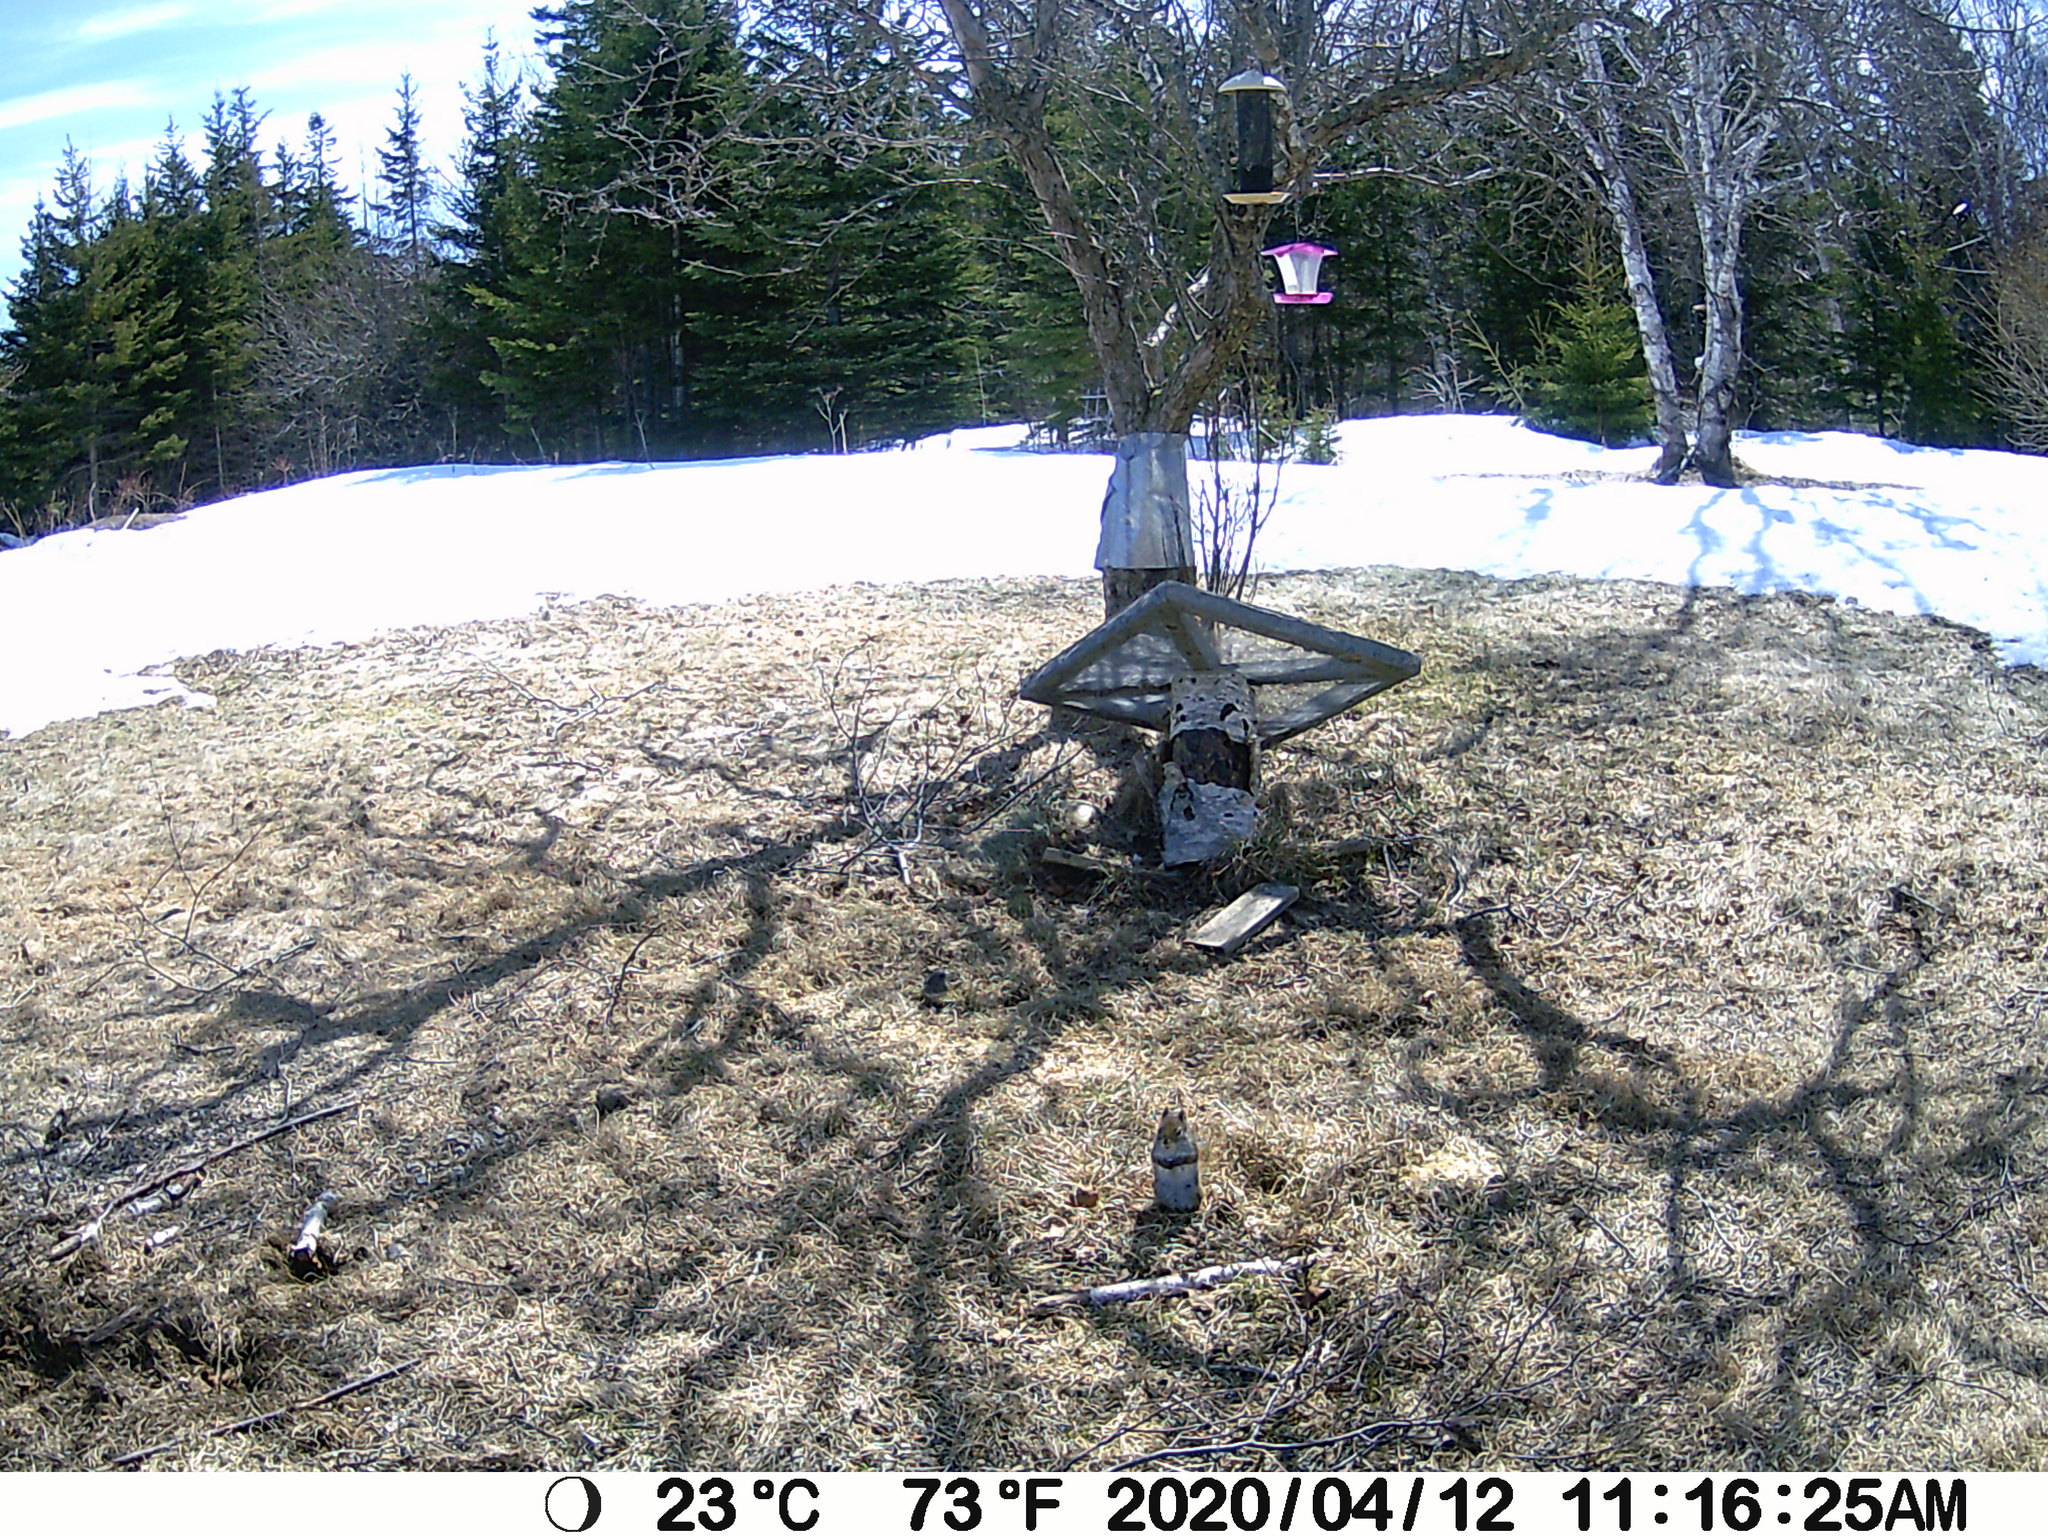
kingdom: Animalia
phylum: Chordata
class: Mammalia
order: Rodentia
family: Sciuridae
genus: Tamiasciurus
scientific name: Tamiasciurus hudsonicus
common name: Red squirrel
